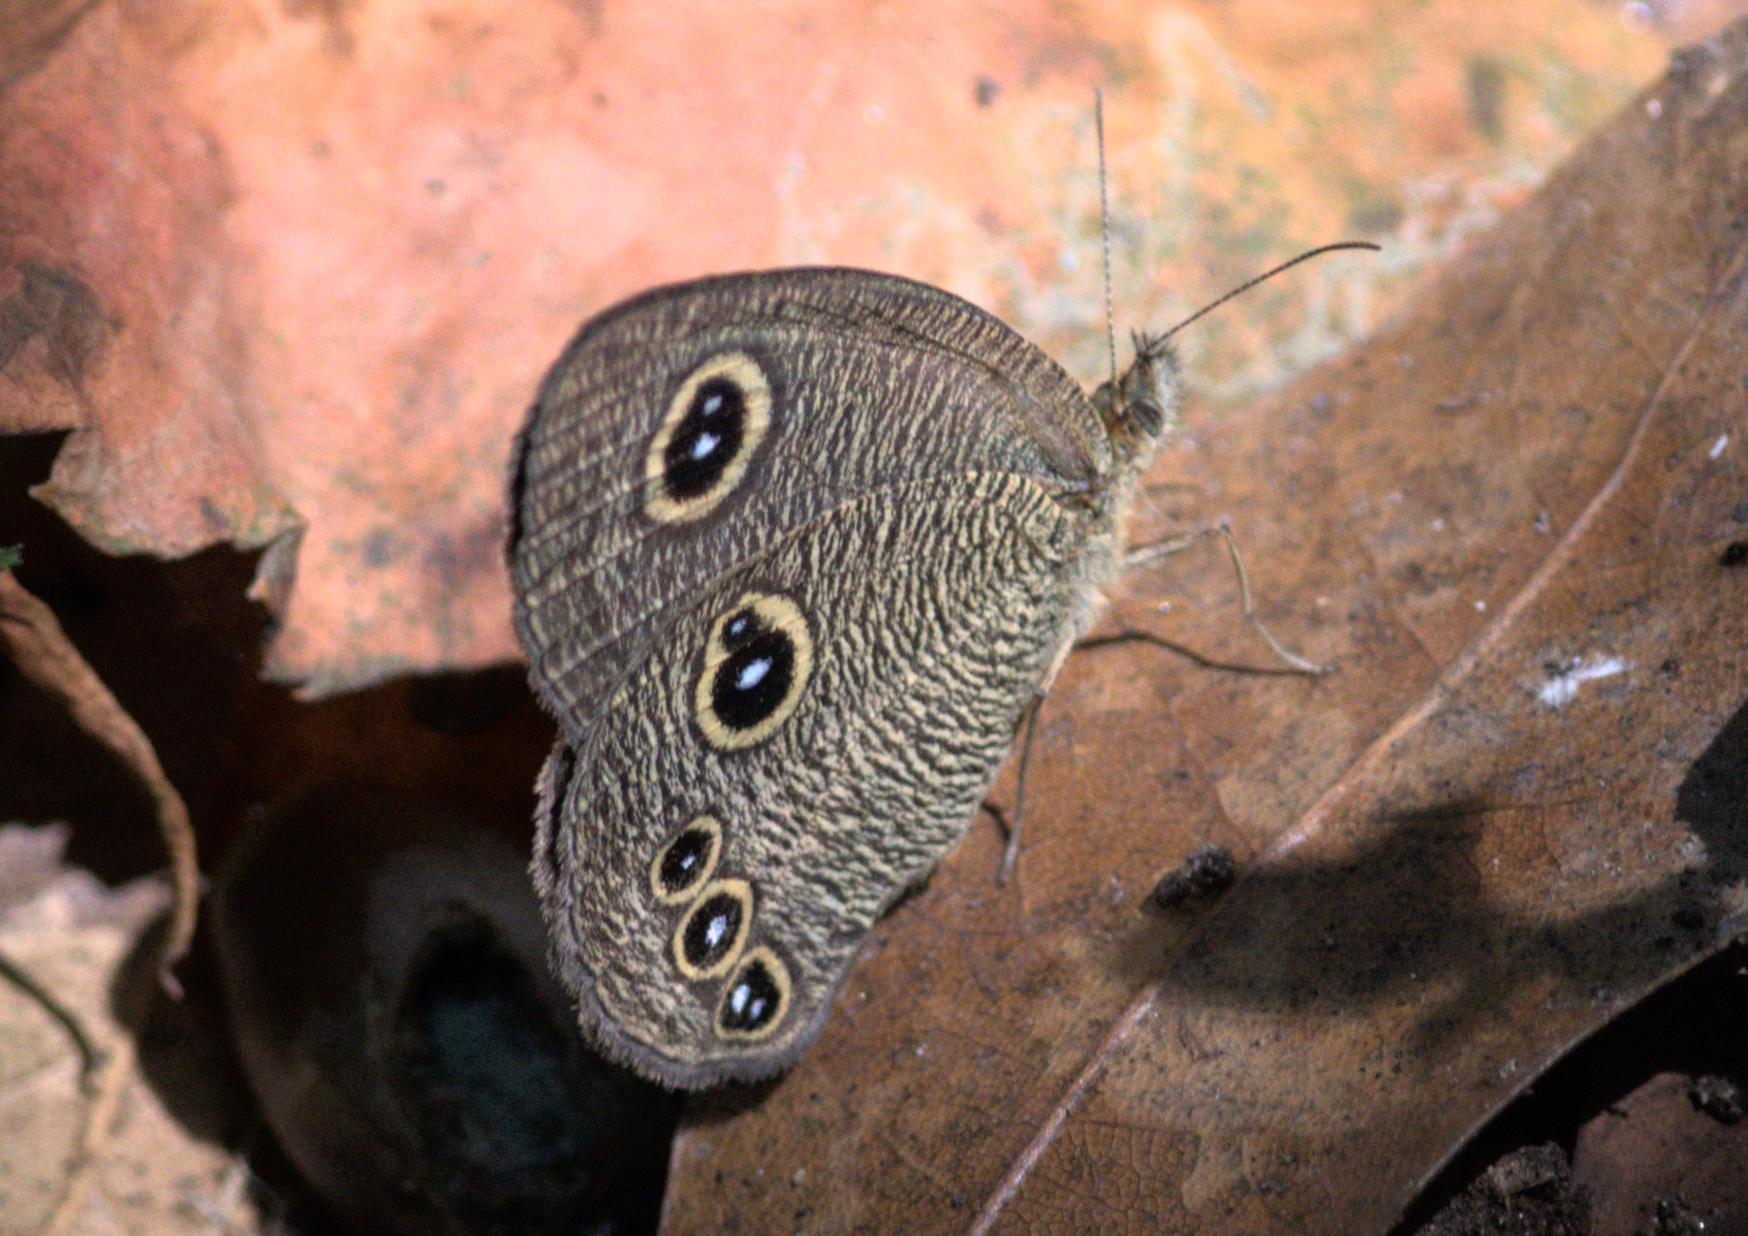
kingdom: Animalia
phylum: Arthropoda
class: Insecta
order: Lepidoptera
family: Nymphalidae
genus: Ypthima
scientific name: Ypthima nikaea
